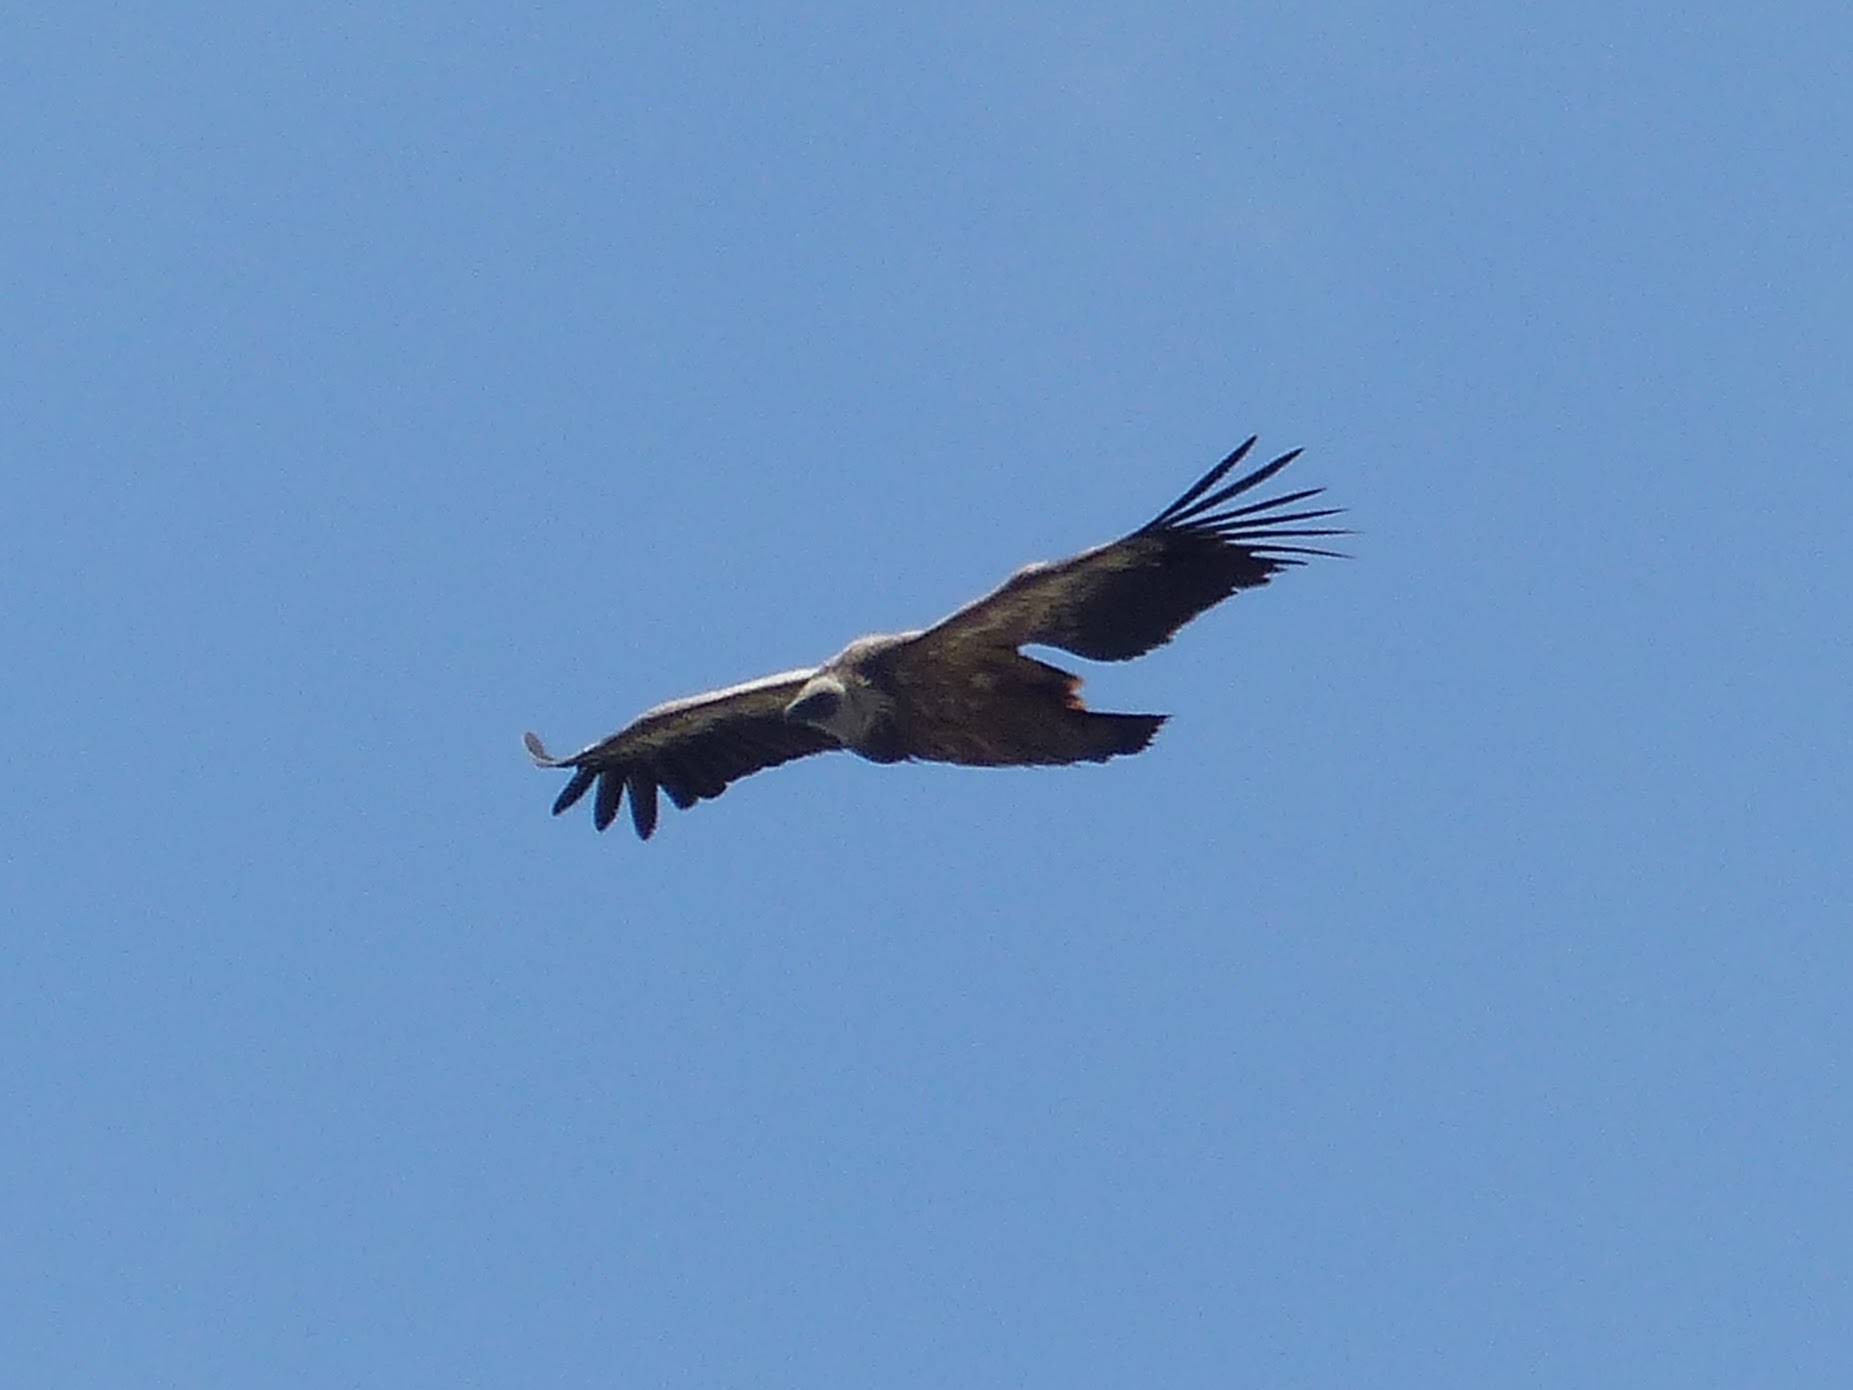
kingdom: Animalia
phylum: Chordata
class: Aves
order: Accipitriformes
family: Accipitridae
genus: Gyps
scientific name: Gyps fulvus
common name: Griffon vulture
